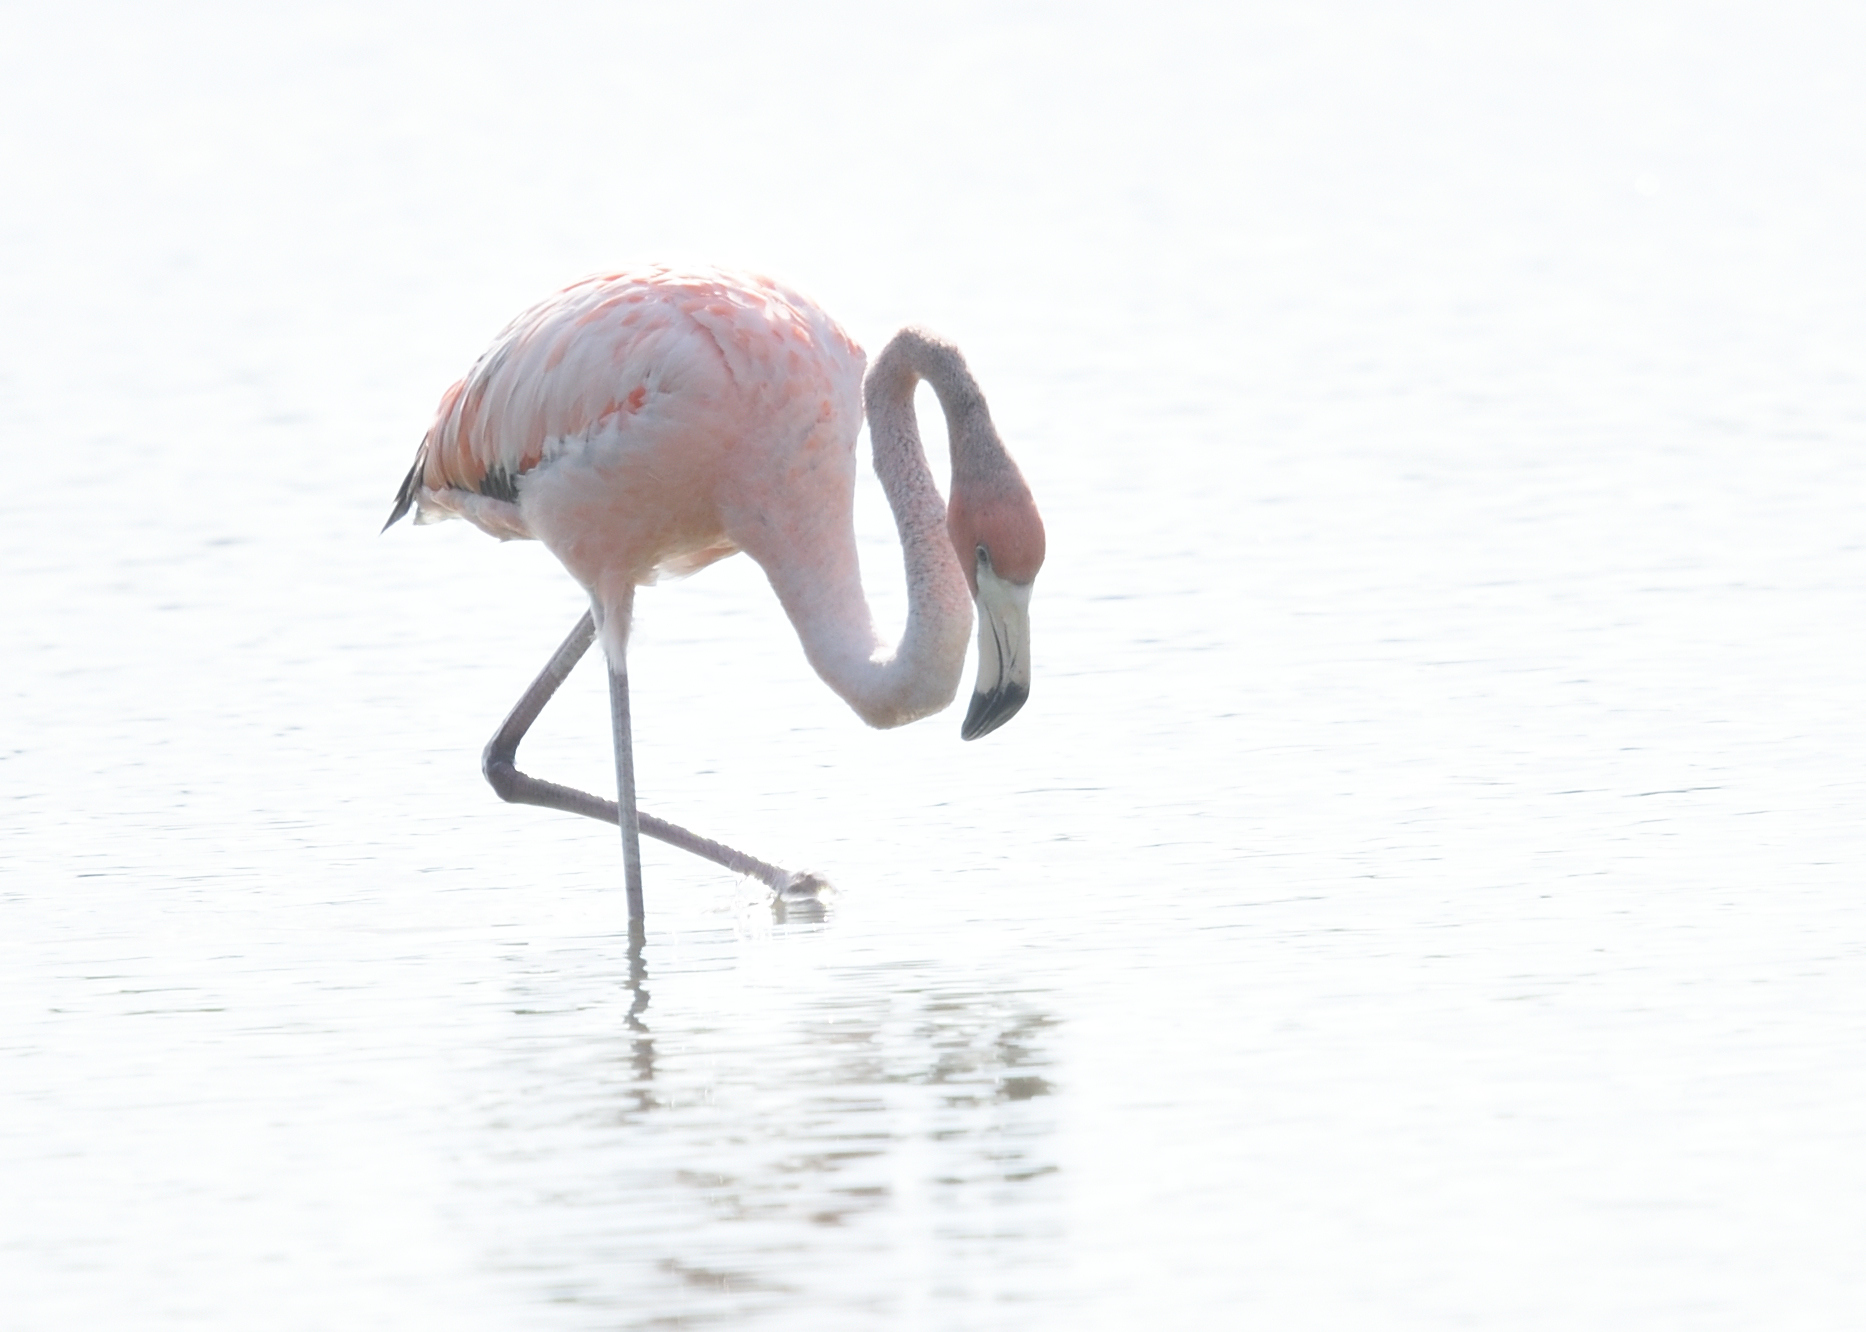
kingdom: Animalia
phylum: Chordata
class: Aves
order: Phoenicopteriformes
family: Phoenicopteridae
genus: Phoenicopterus
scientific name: Phoenicopterus ruber
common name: American flamingo
